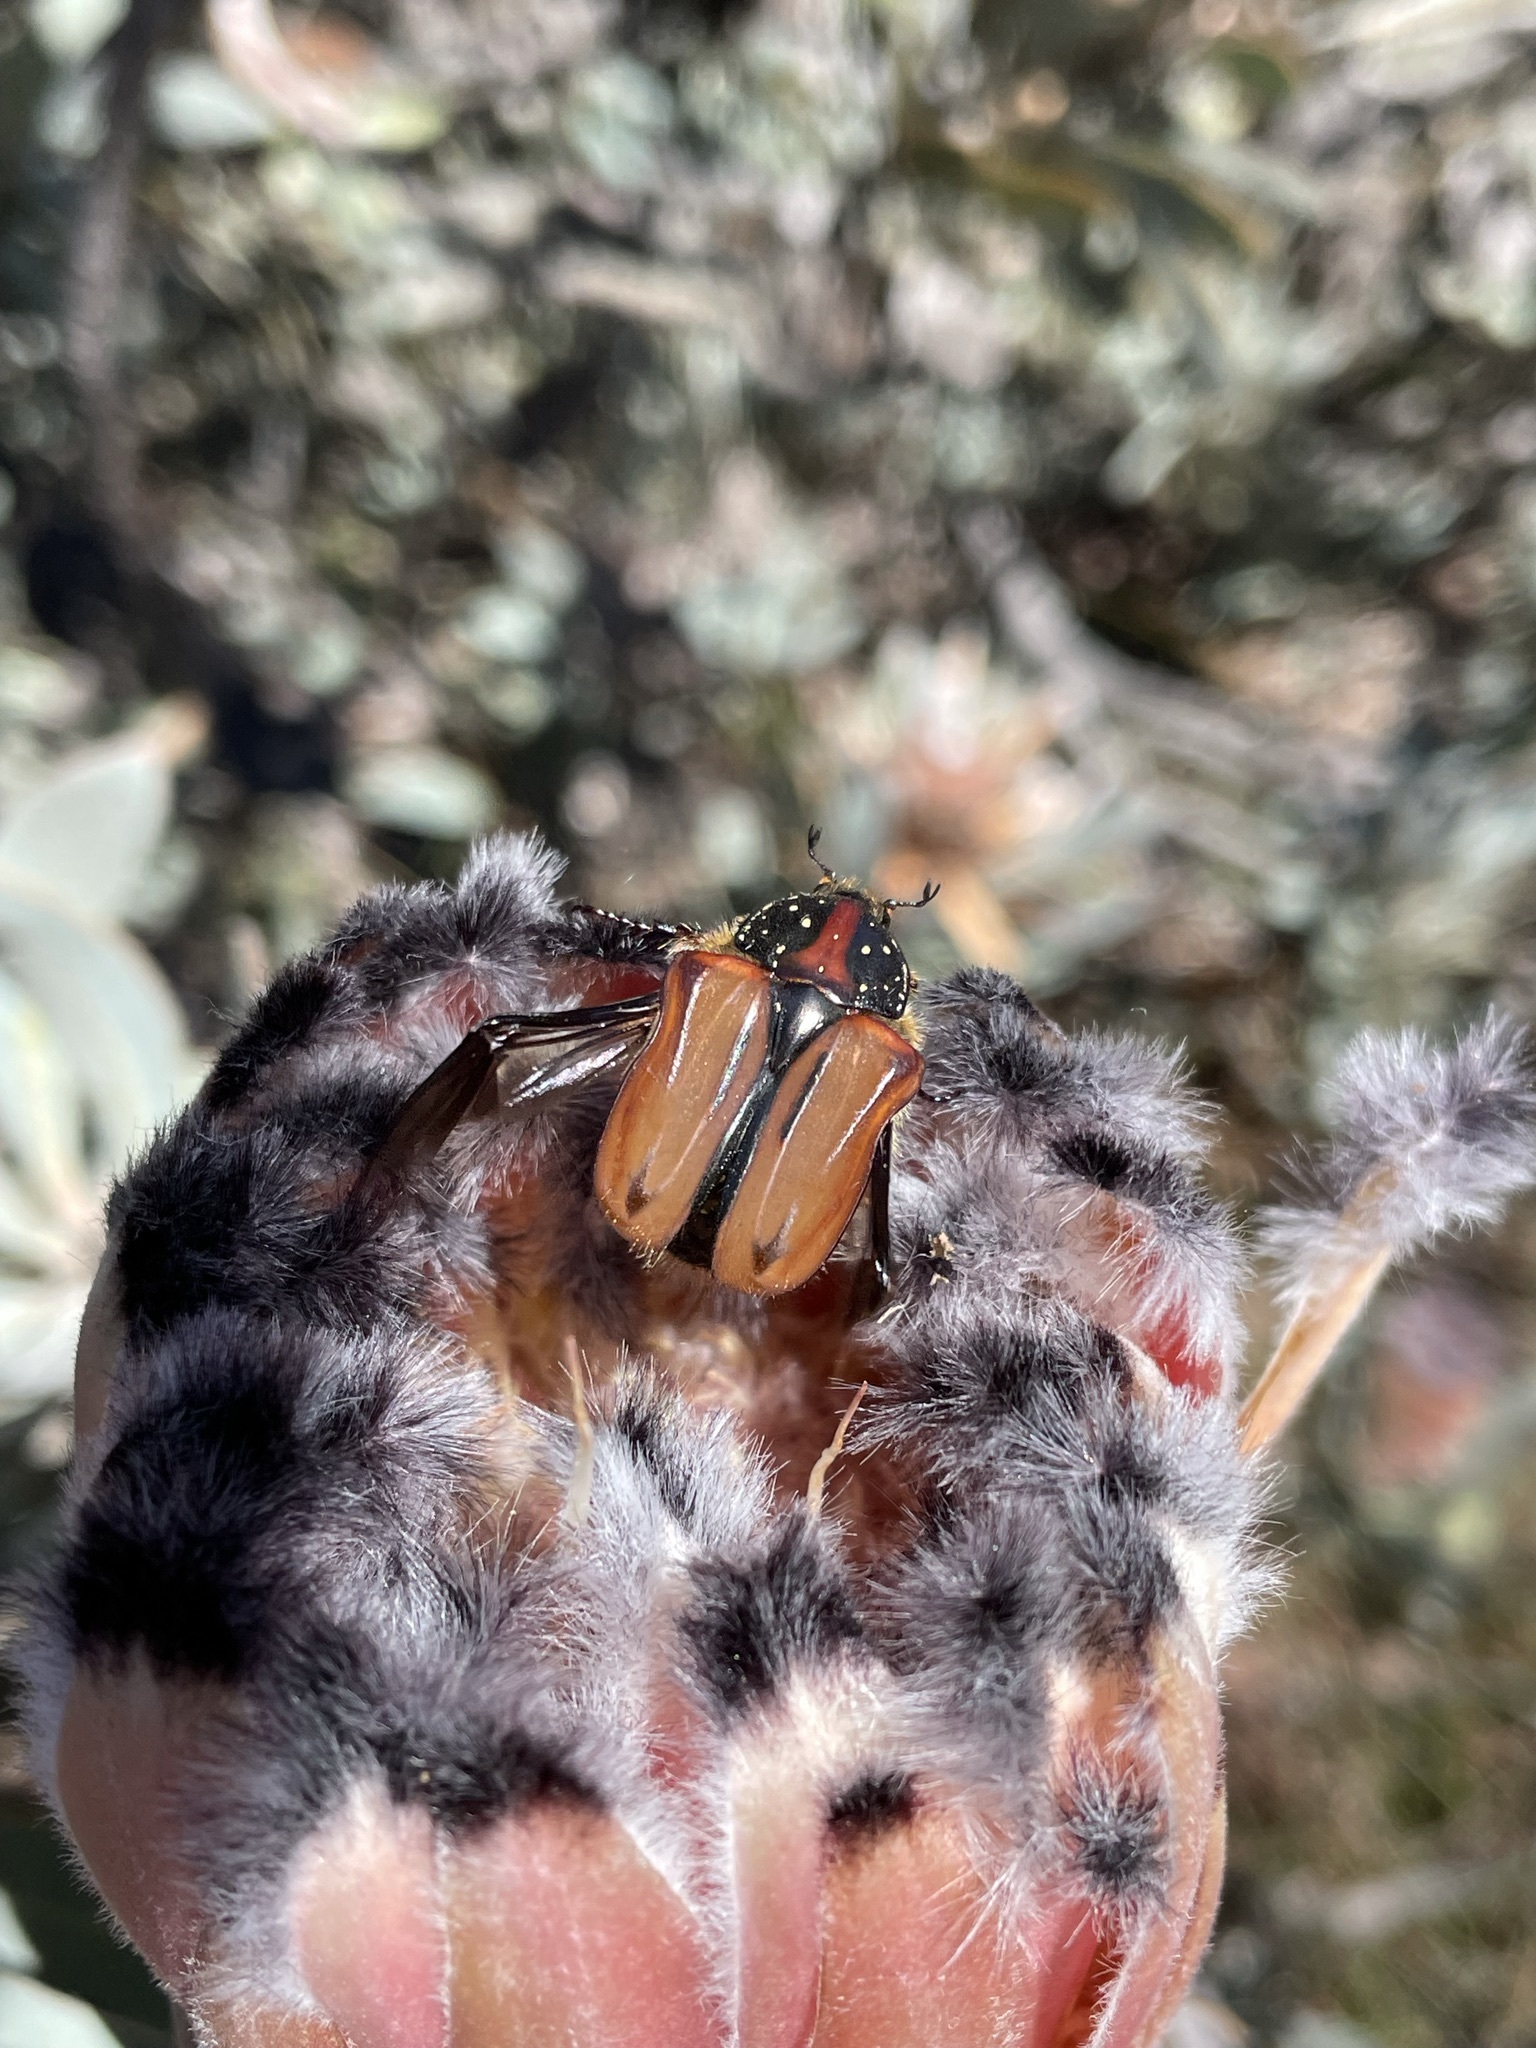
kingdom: Animalia
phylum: Arthropoda
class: Insecta
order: Coleoptera
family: Scarabaeidae
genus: Trichostetha
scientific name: Trichostetha capensis
